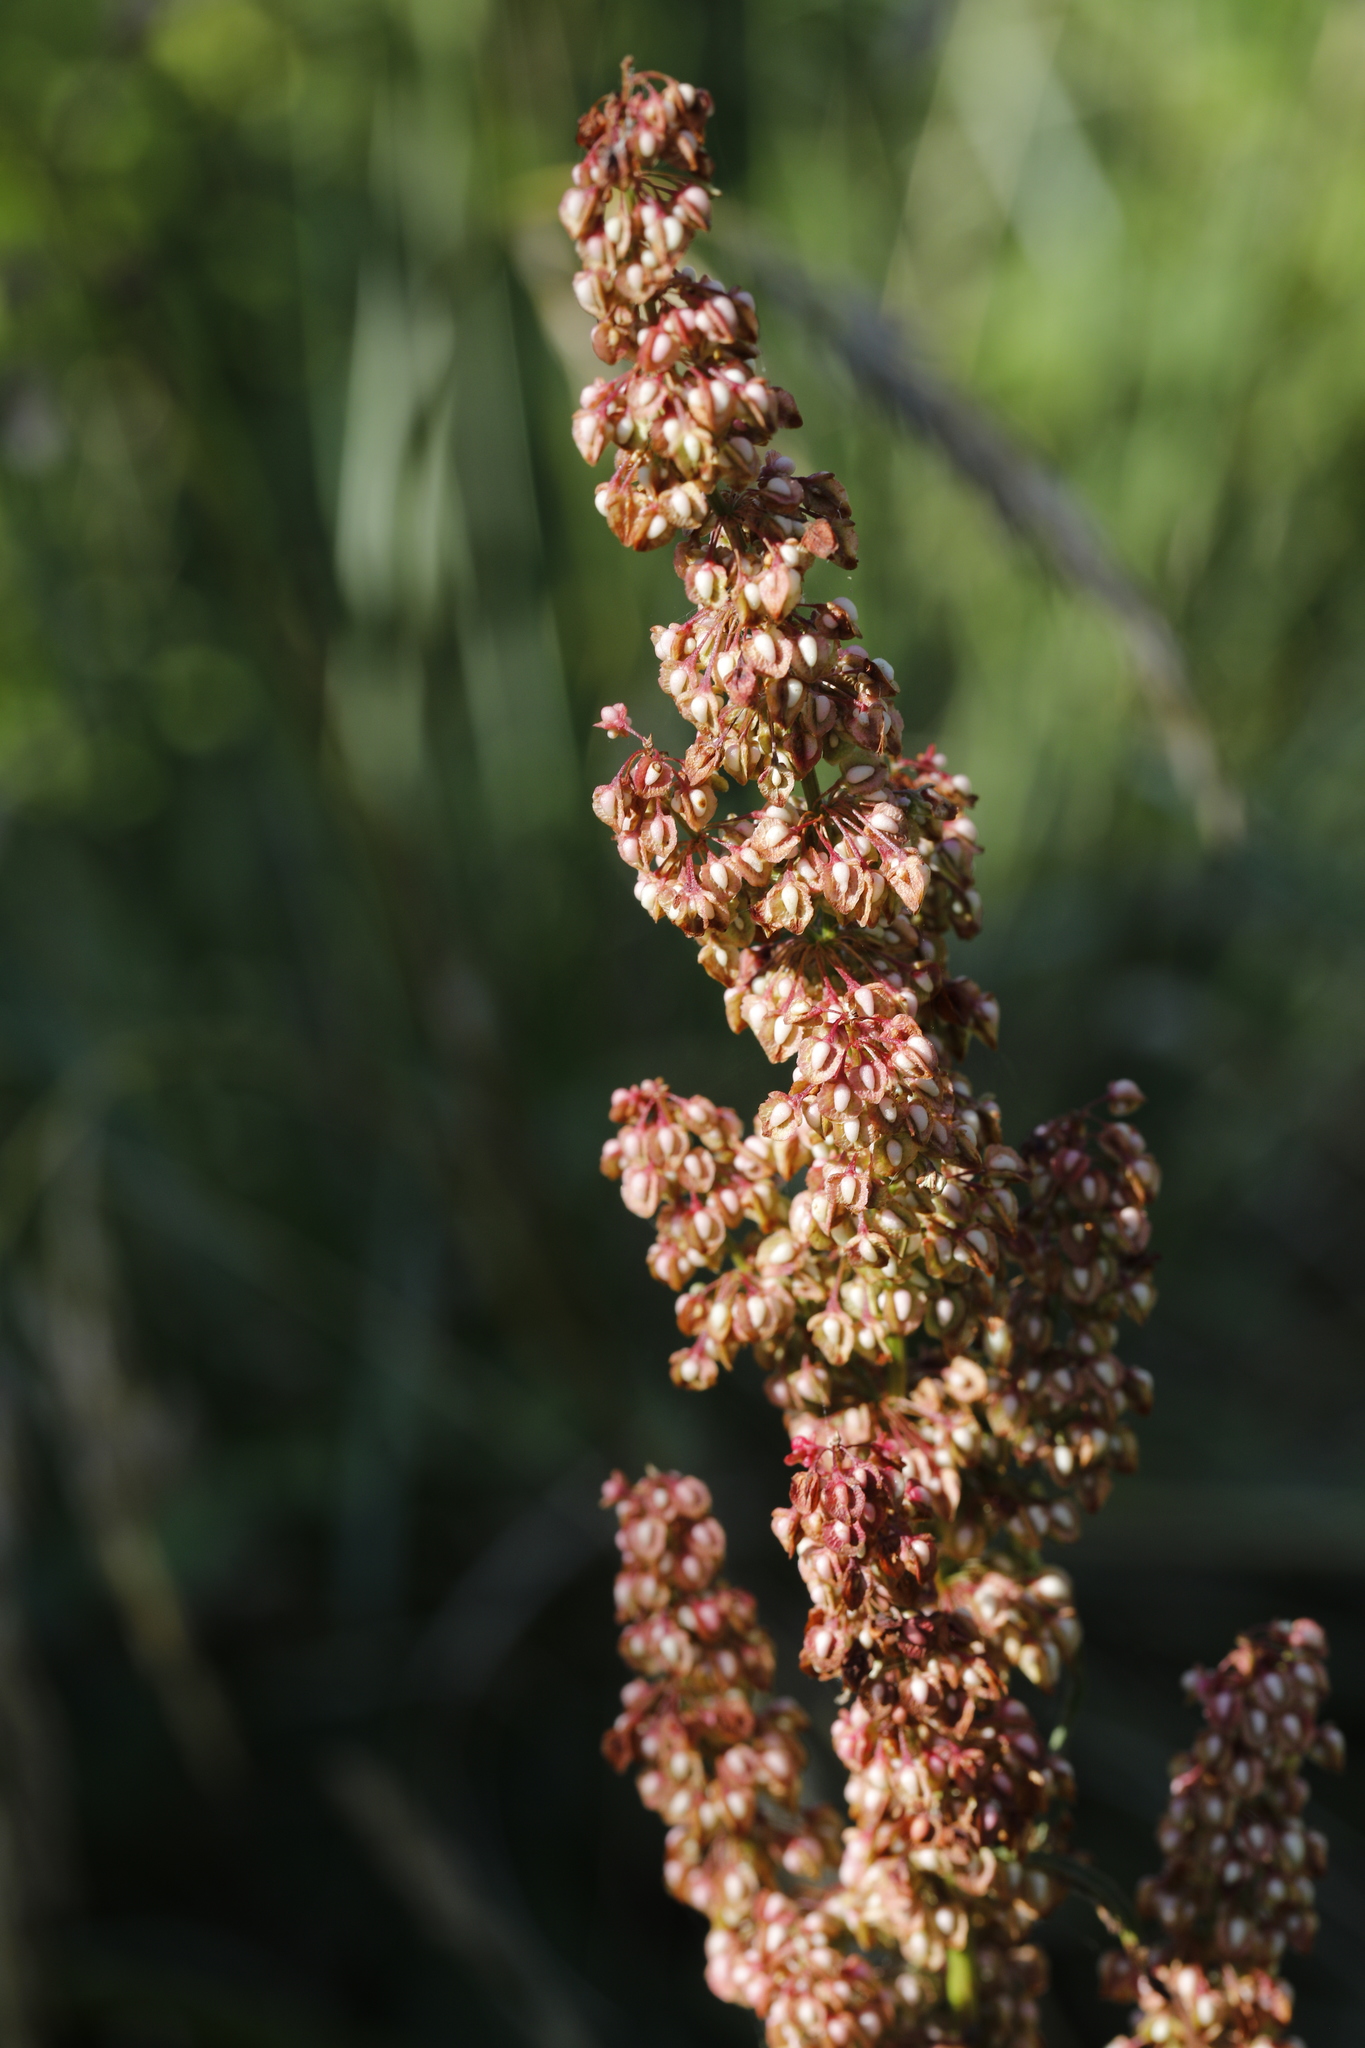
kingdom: Plantae
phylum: Tracheophyta
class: Magnoliopsida
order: Caryophyllales
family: Polygonaceae
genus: Rumex
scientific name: Rumex crispus
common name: Curled dock
